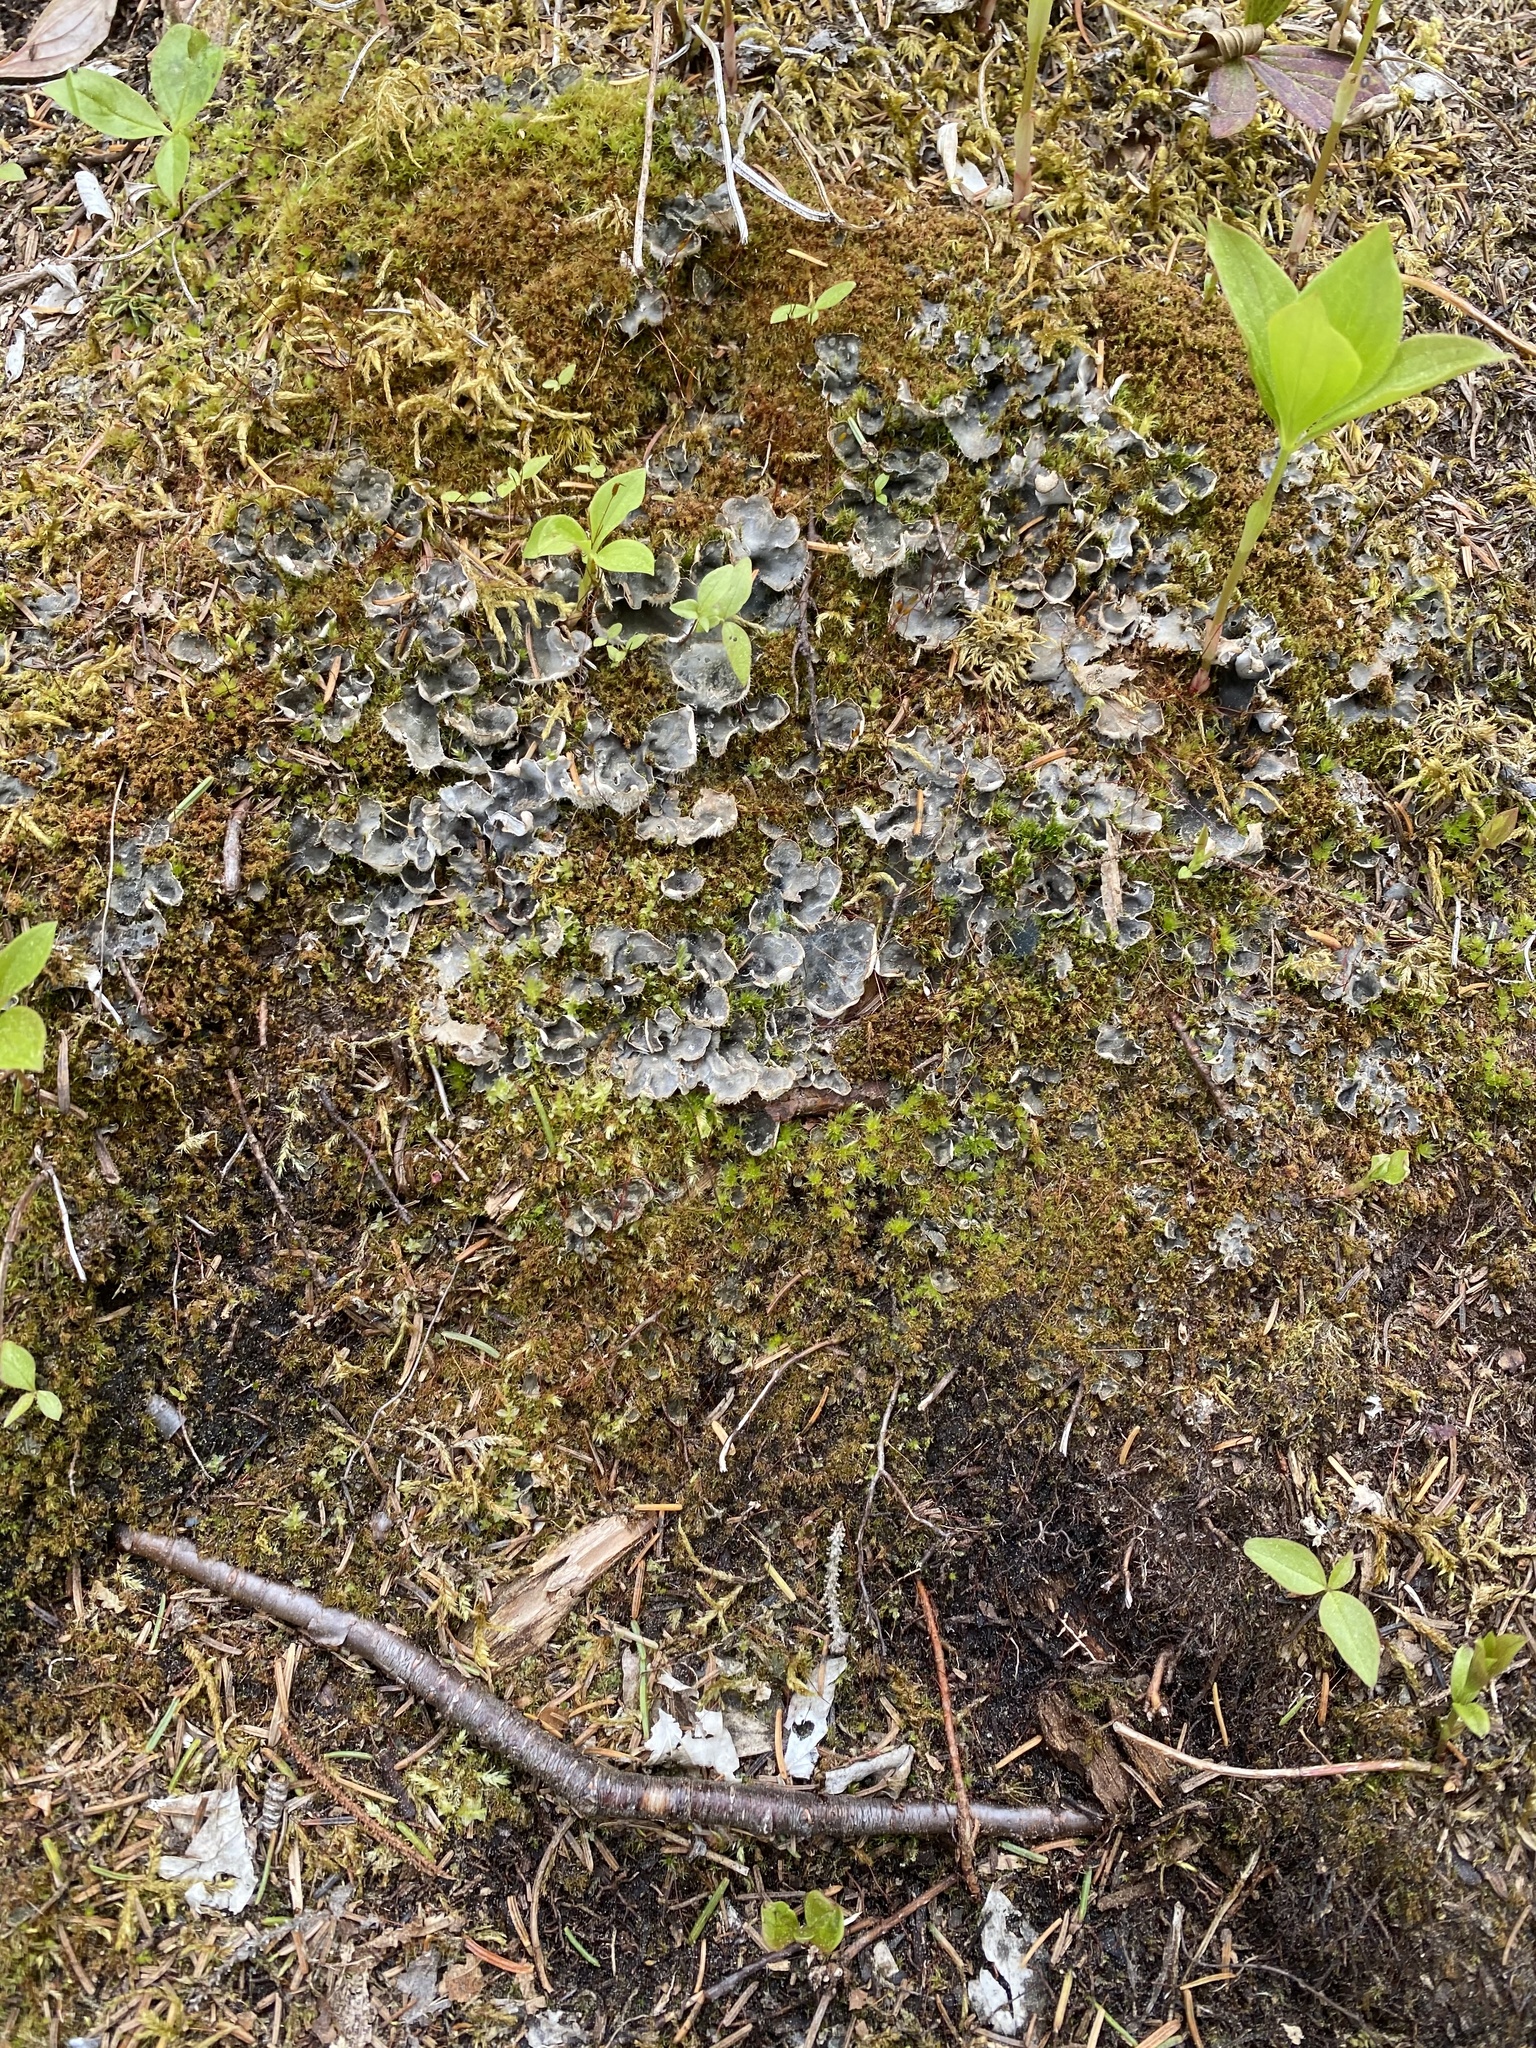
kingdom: Fungi
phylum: Ascomycota
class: Lecanoromycetes
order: Peltigerales
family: Peltigeraceae
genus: Peltigera
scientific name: Peltigera didactyla
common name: Alternating dog lichen
